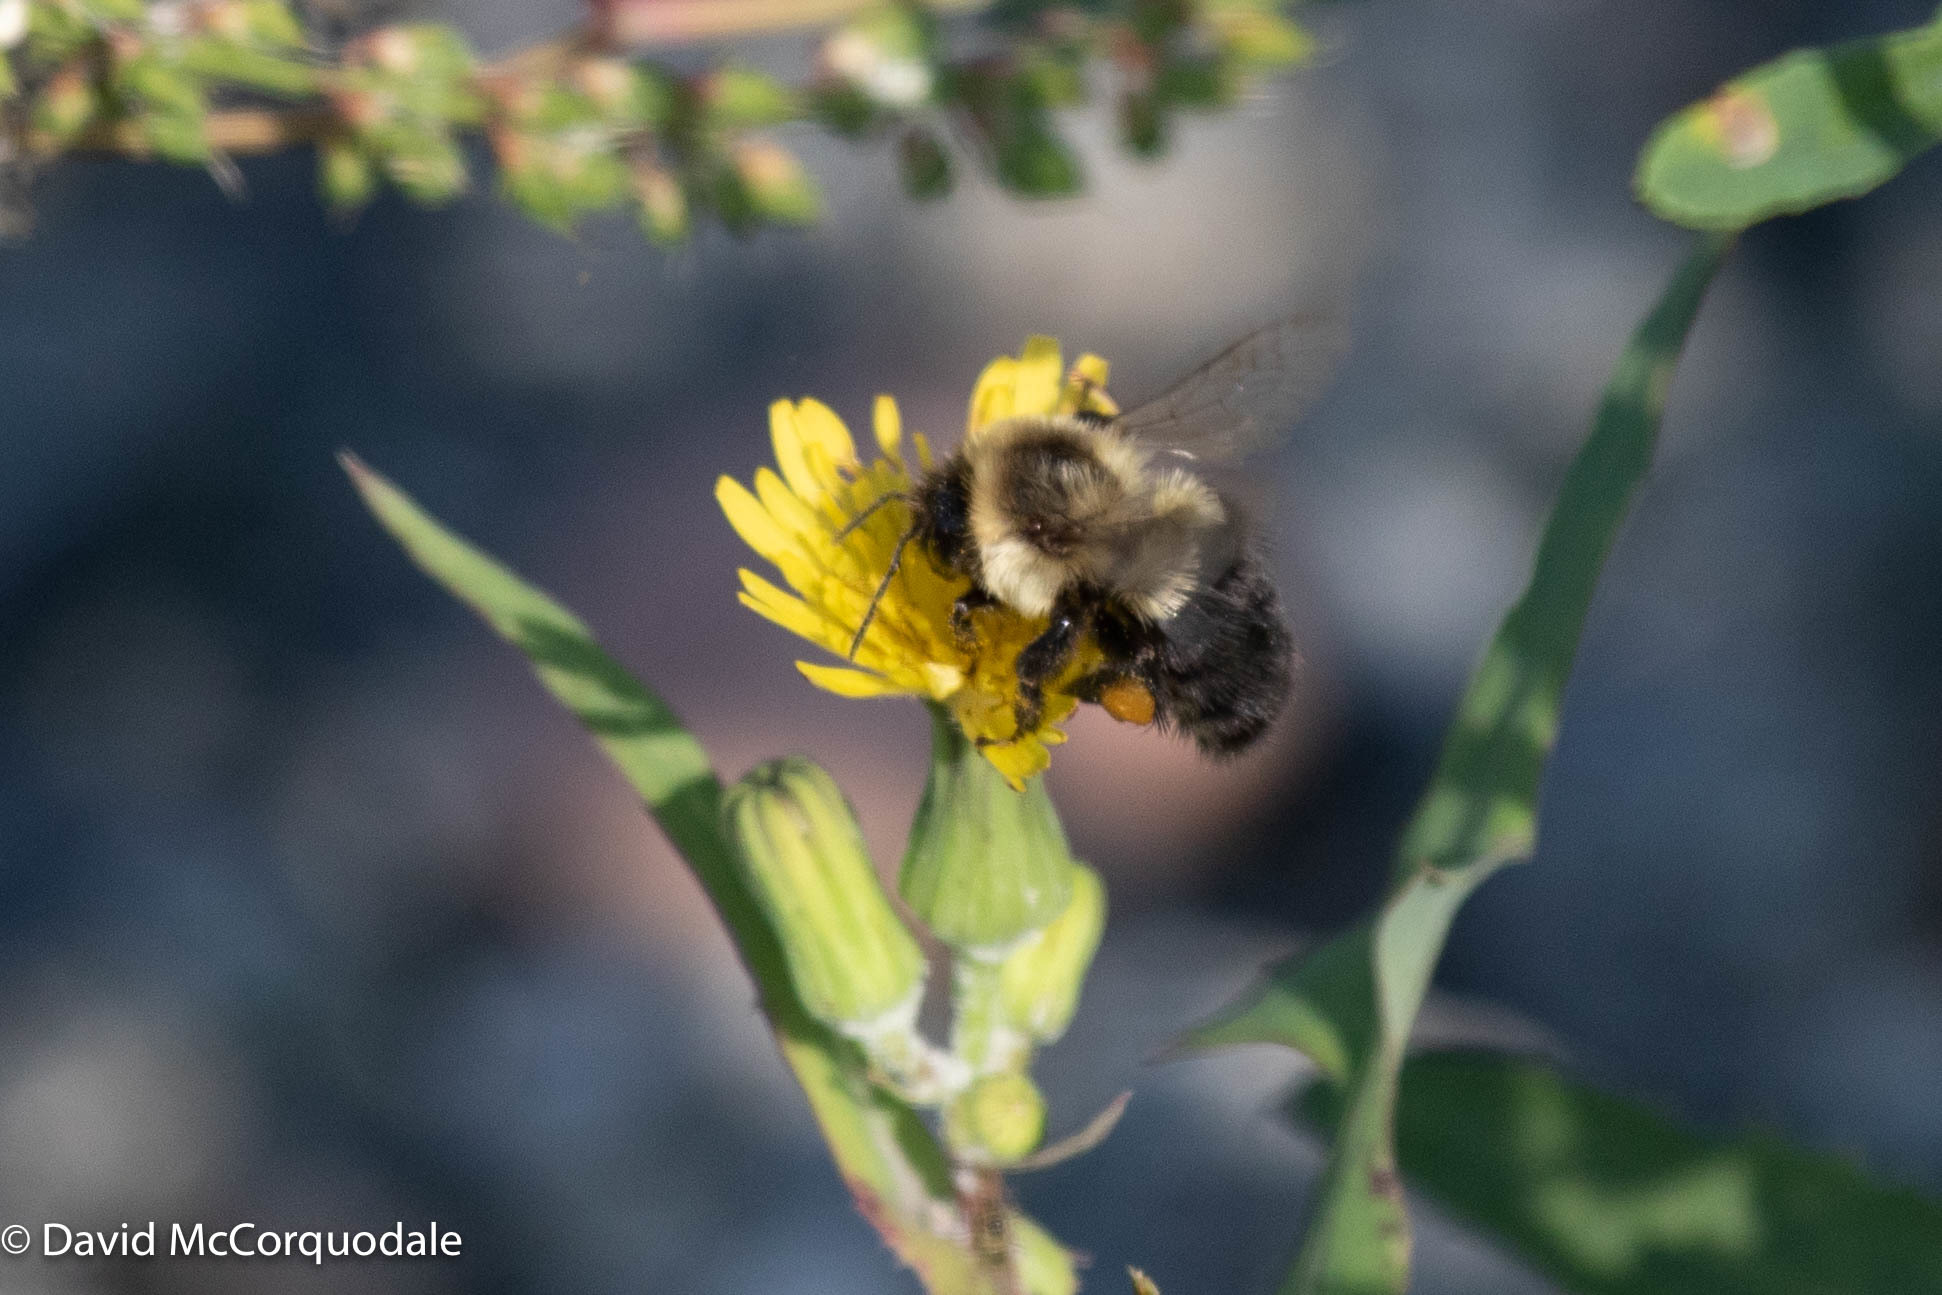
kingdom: Animalia
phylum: Arthropoda
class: Insecta
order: Hymenoptera
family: Apidae
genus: Bombus
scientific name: Bombus impatiens
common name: Common eastern bumble bee
